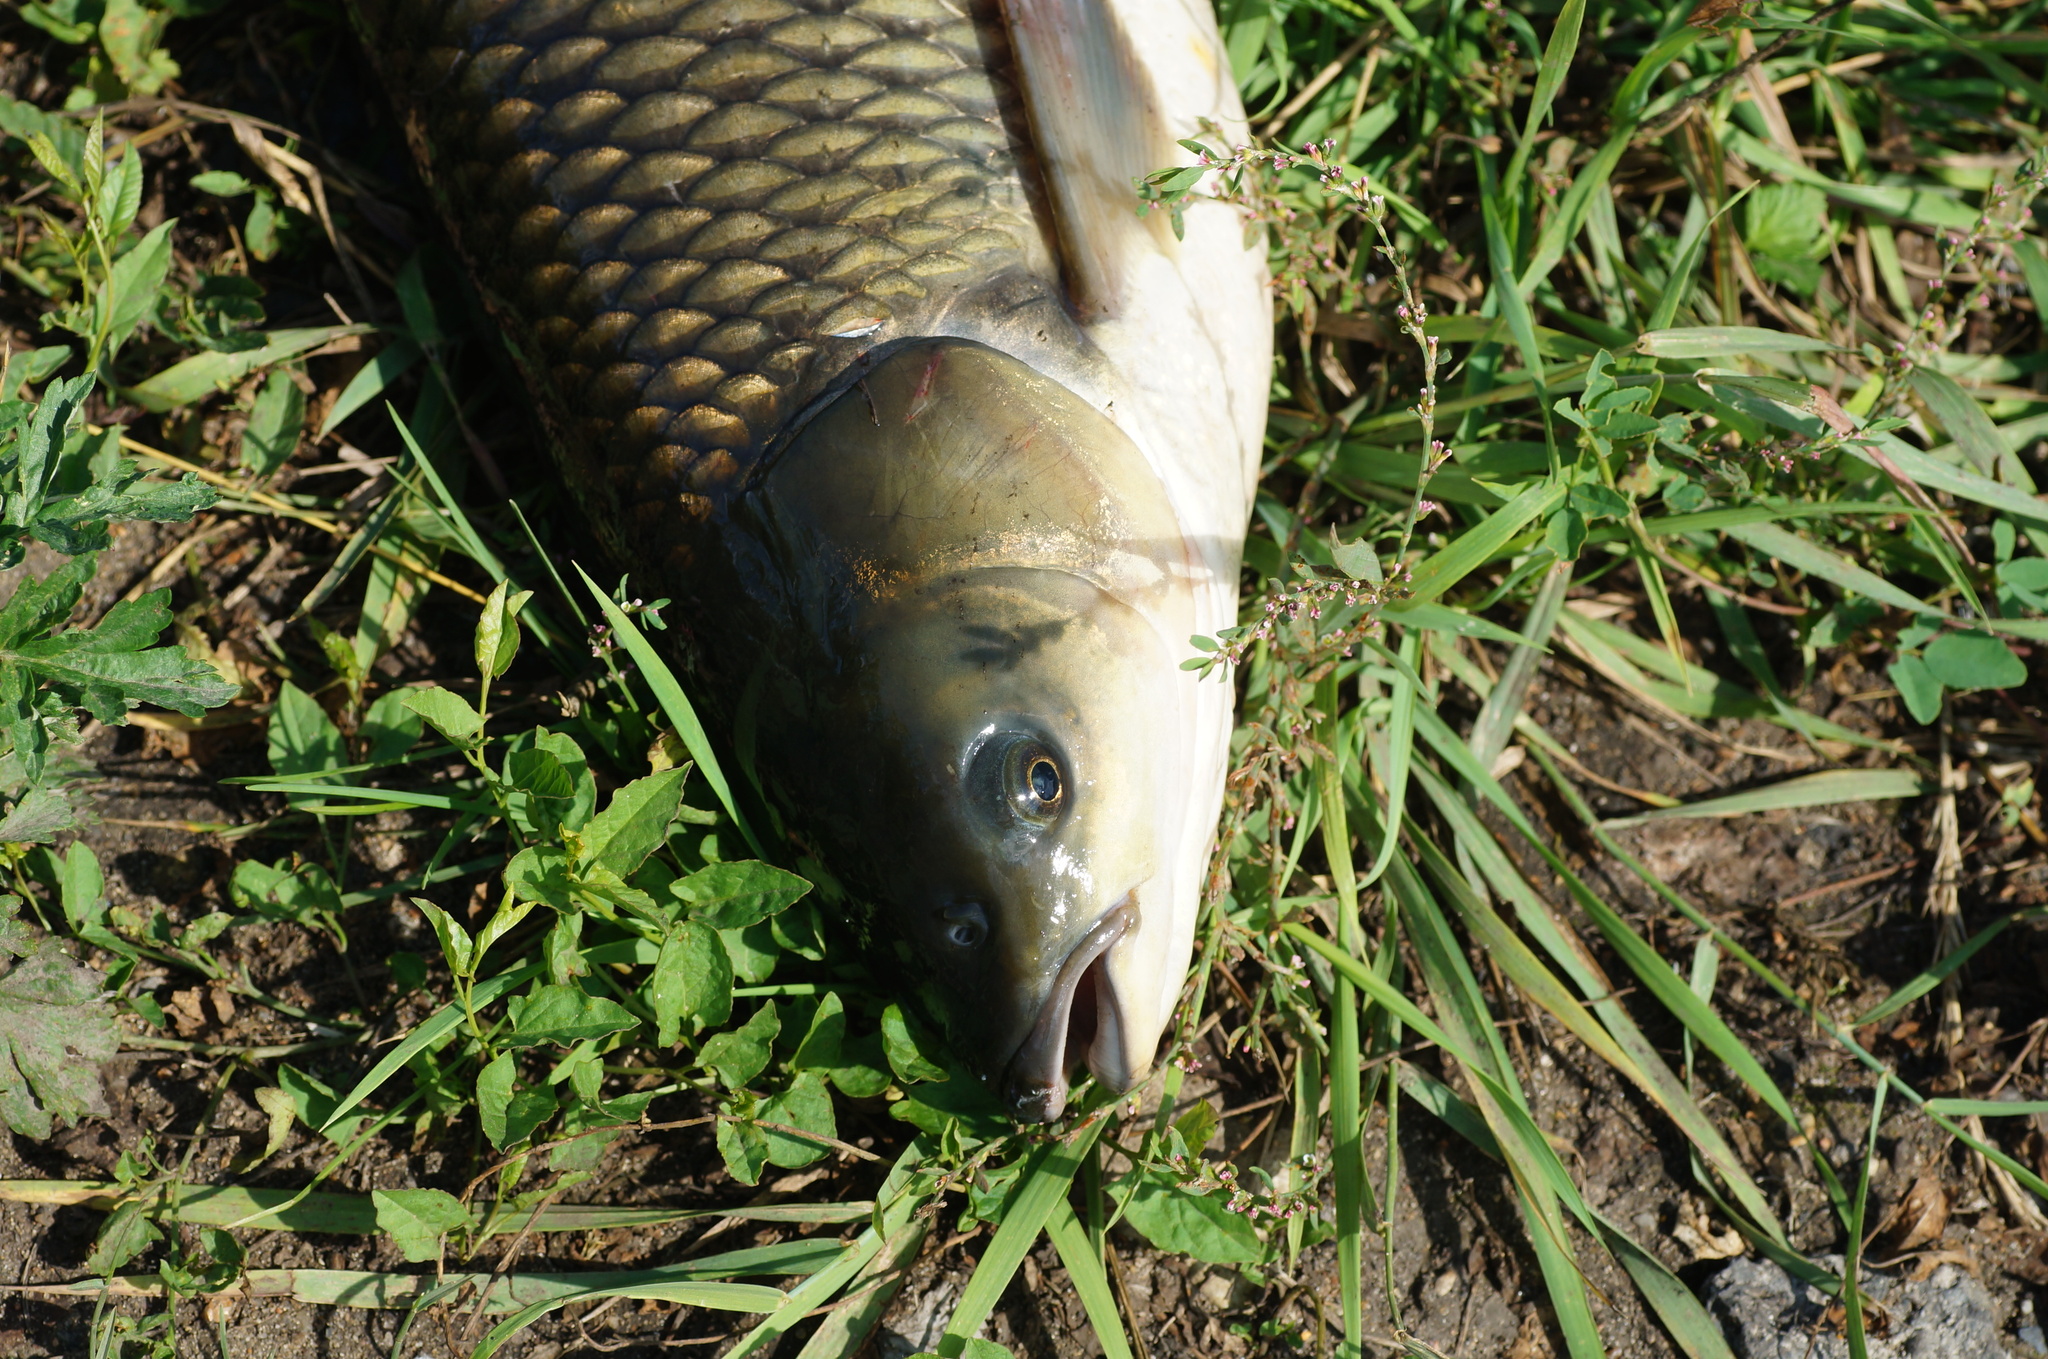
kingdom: Animalia
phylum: Chordata
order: Cypriniformes
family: Cyprinidae
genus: Ctenopharyngodon
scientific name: Ctenopharyngodon idella
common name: Grass carp
